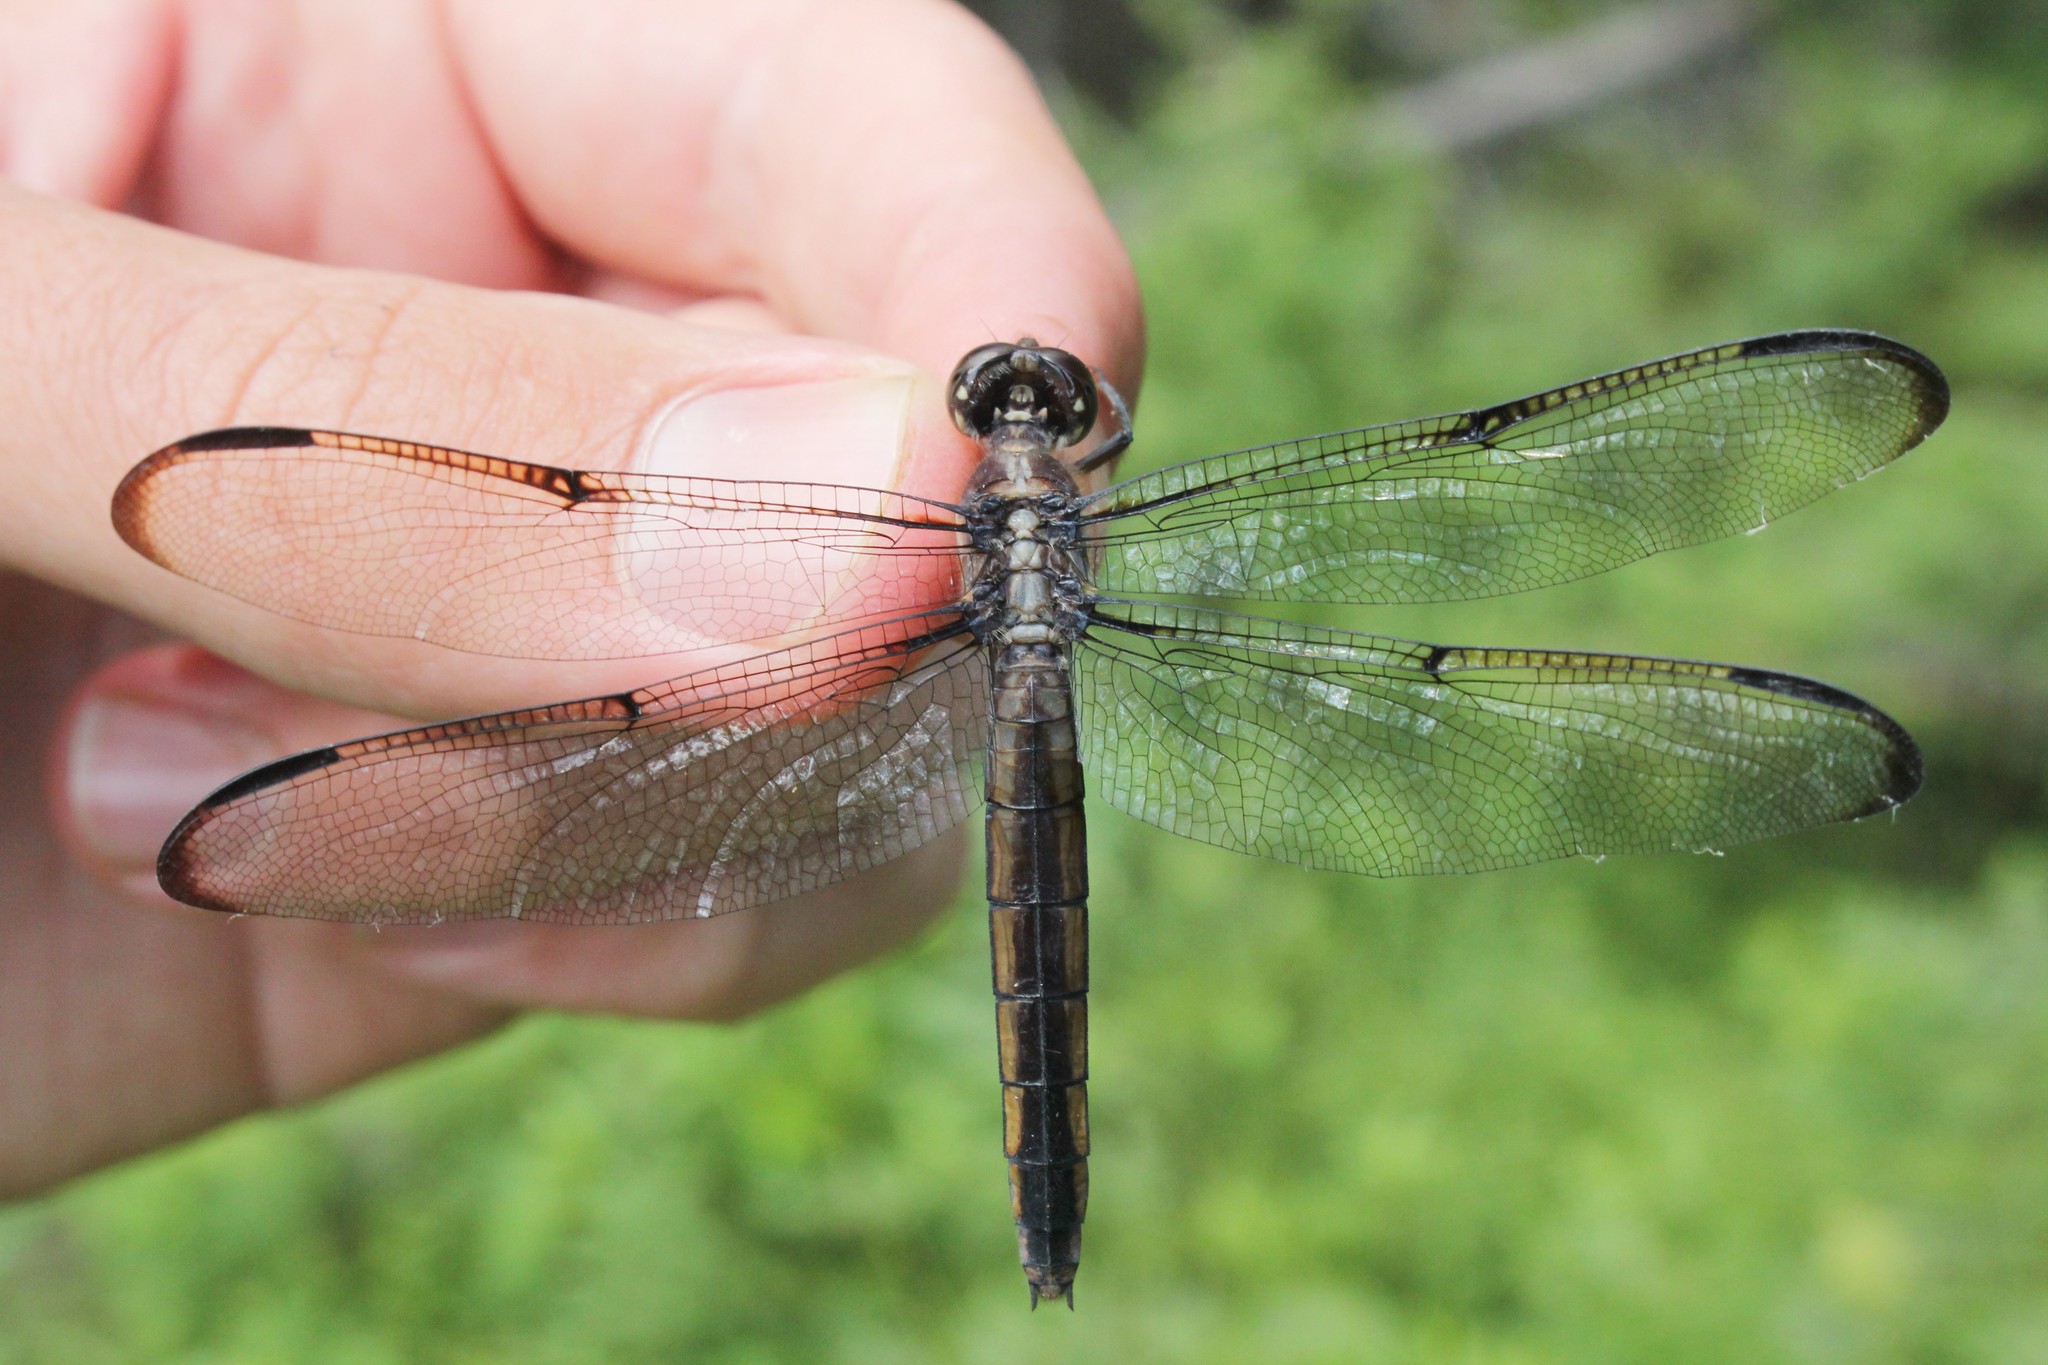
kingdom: Animalia
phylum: Arthropoda
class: Insecta
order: Odonata
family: Libellulidae
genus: Libellula
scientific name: Libellula incesta
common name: Slaty skimmer
